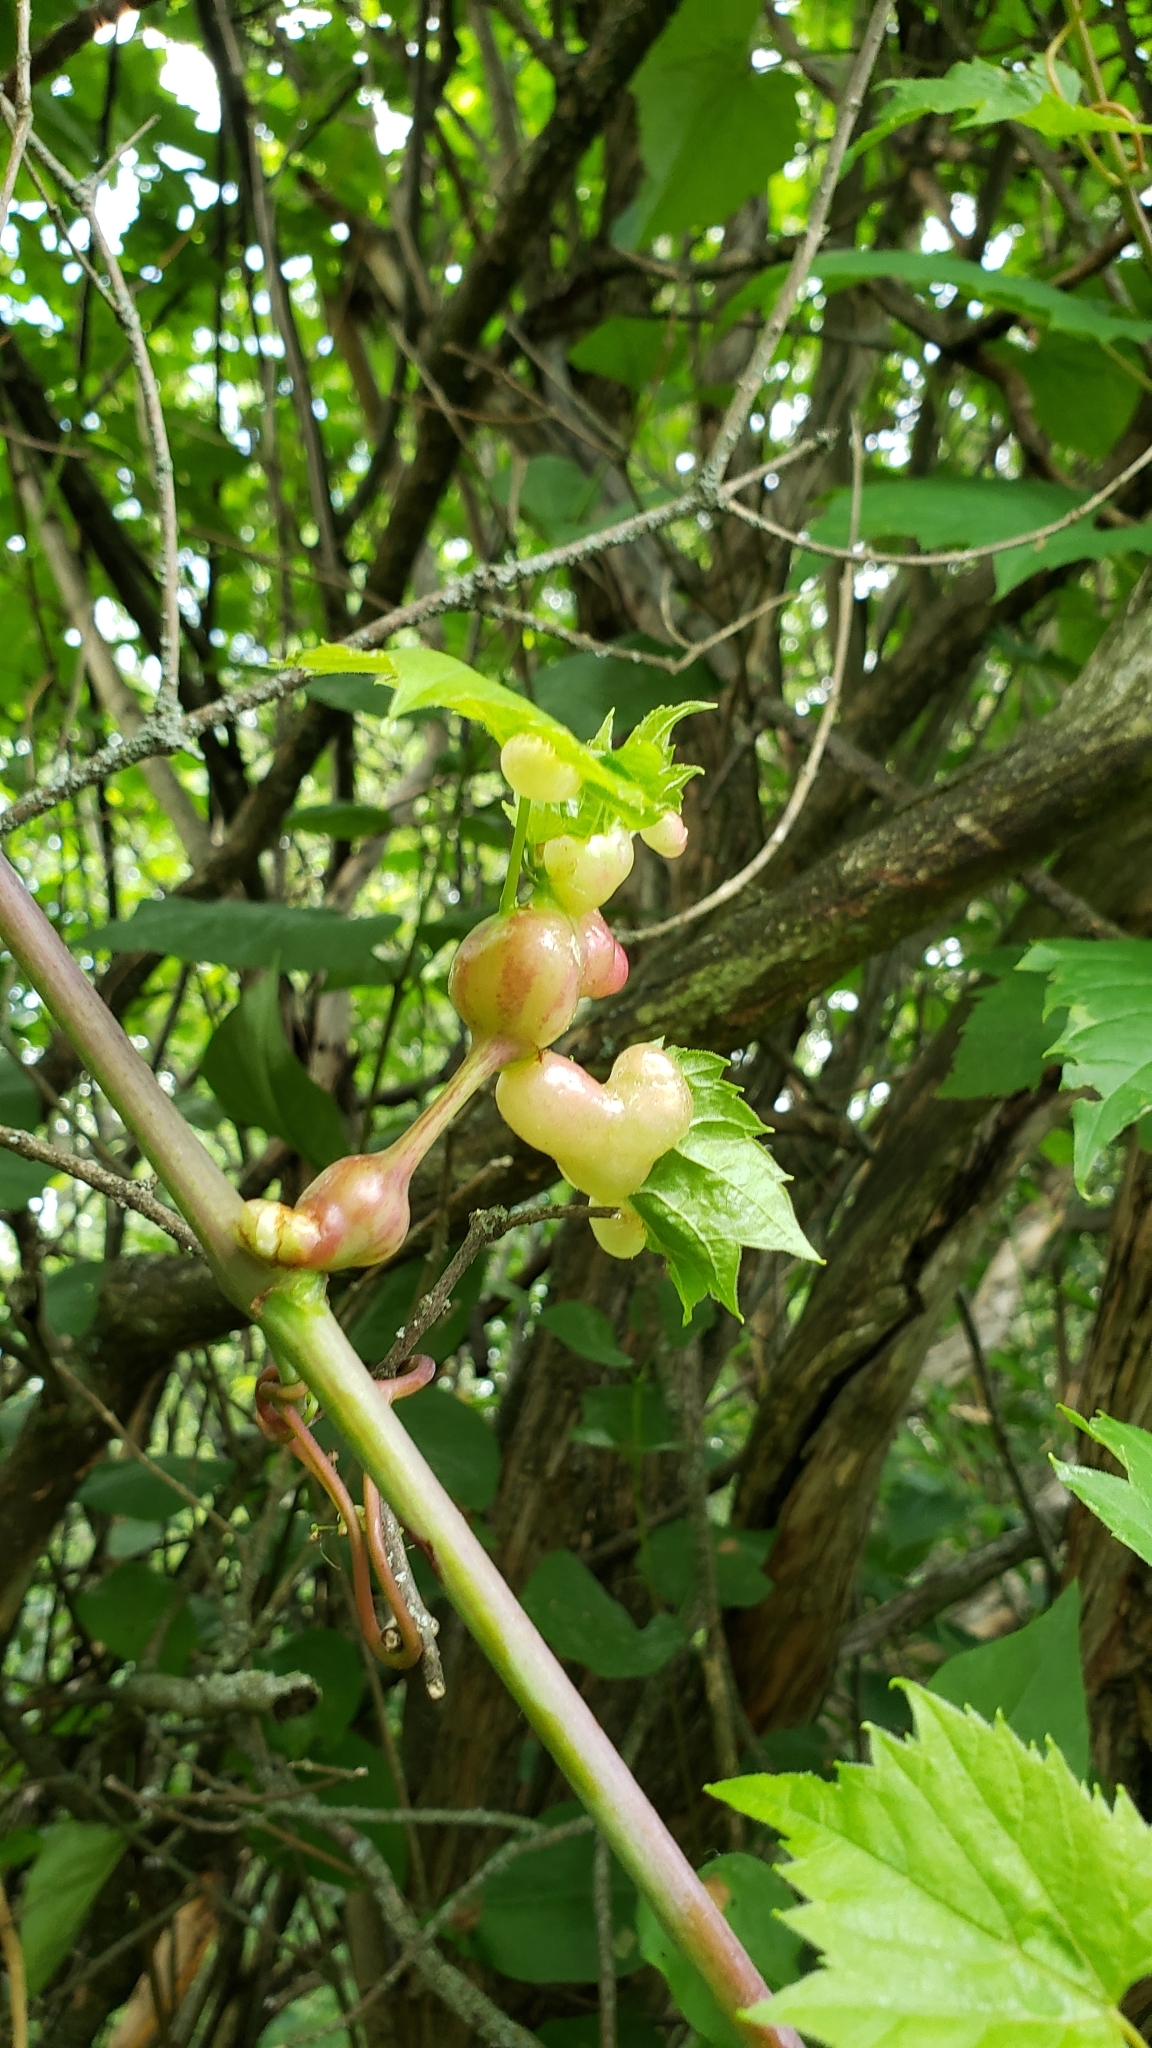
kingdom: Animalia
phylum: Arthropoda
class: Insecta
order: Diptera
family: Cecidomyiidae
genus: Vitisiella
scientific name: Vitisiella brevicauda
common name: Grape tumid gallmaker midge
